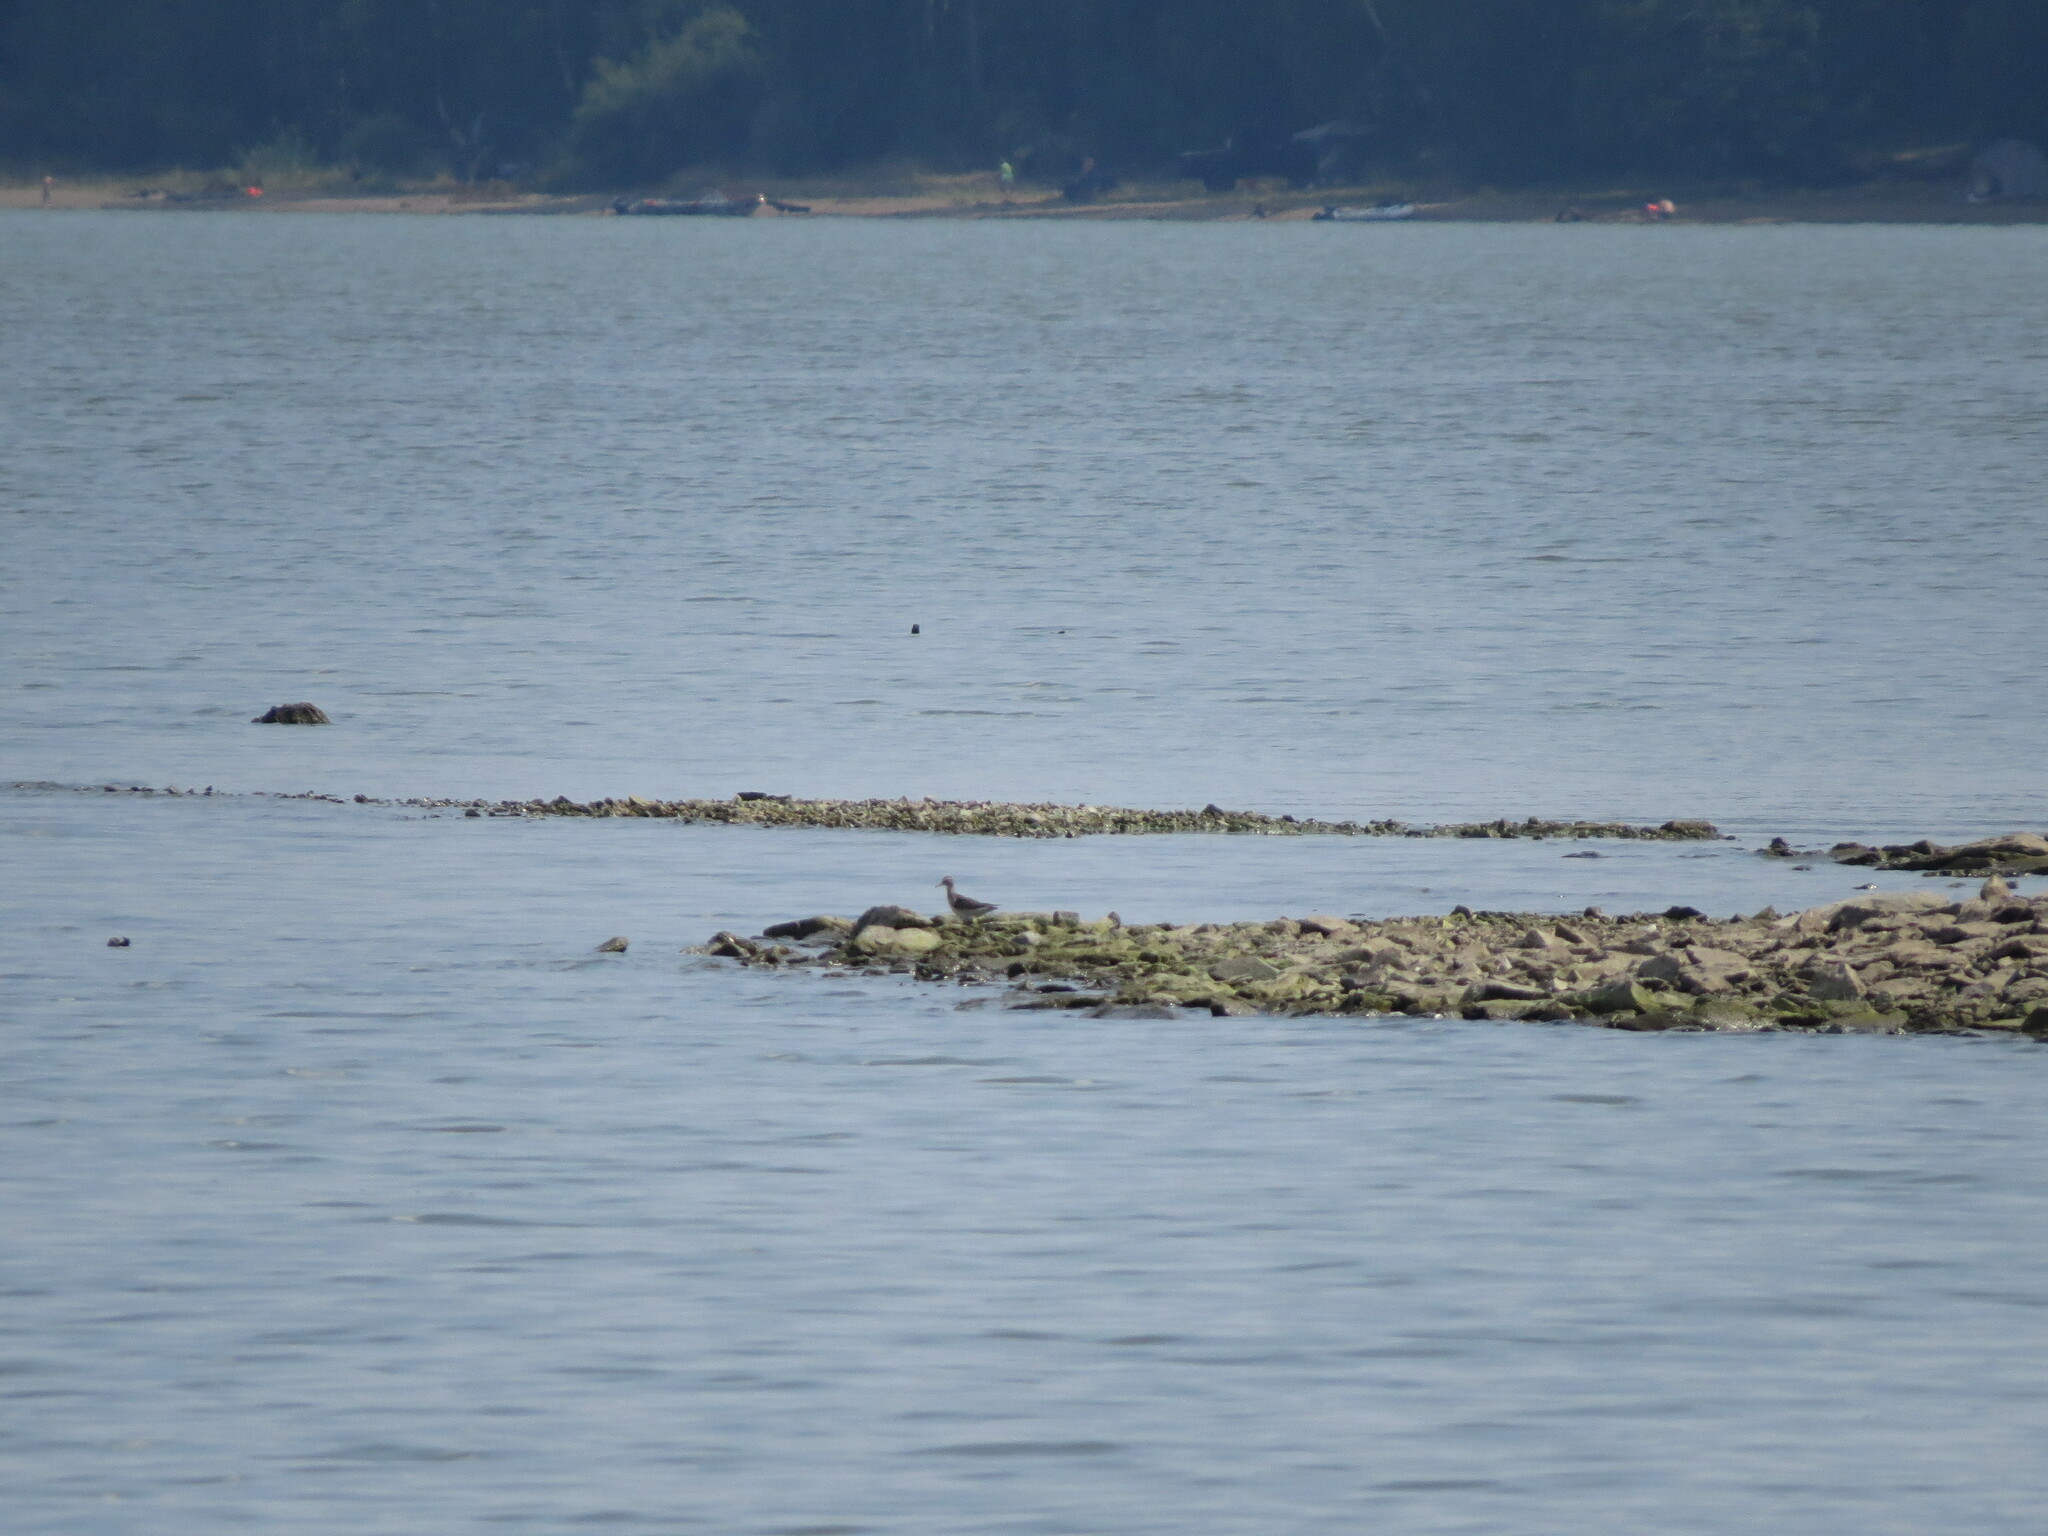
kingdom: Animalia
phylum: Chordata
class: Aves
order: Charadriiformes
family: Scolopacidae
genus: Tringa
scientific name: Tringa glareola
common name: Wood sandpiper
